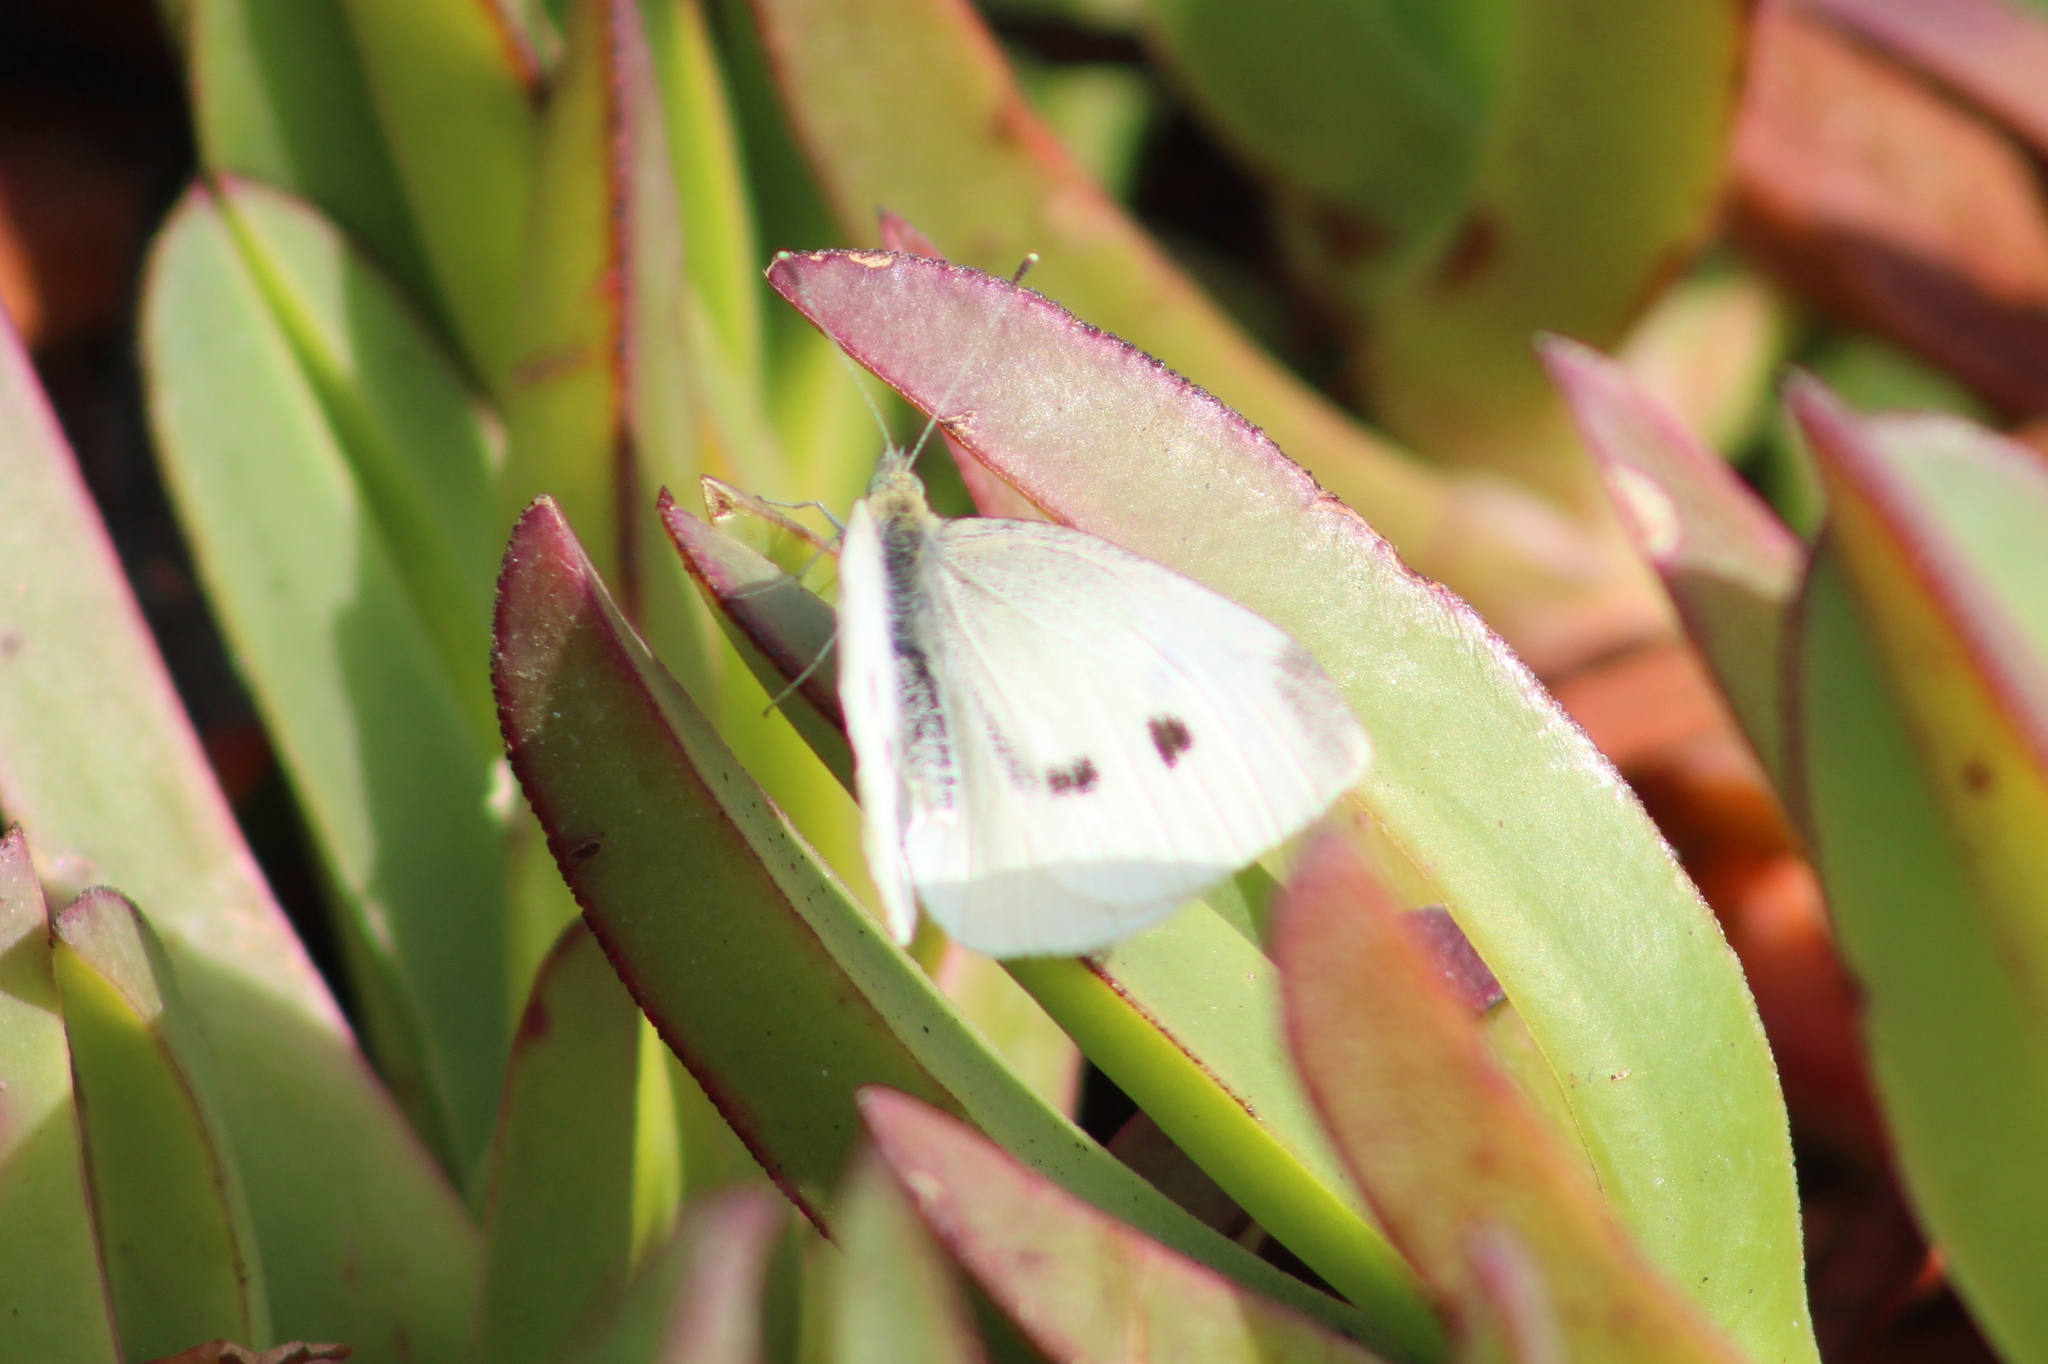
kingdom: Animalia
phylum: Arthropoda
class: Insecta
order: Lepidoptera
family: Pieridae
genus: Pieris
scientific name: Pieris rapae
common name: Small white
